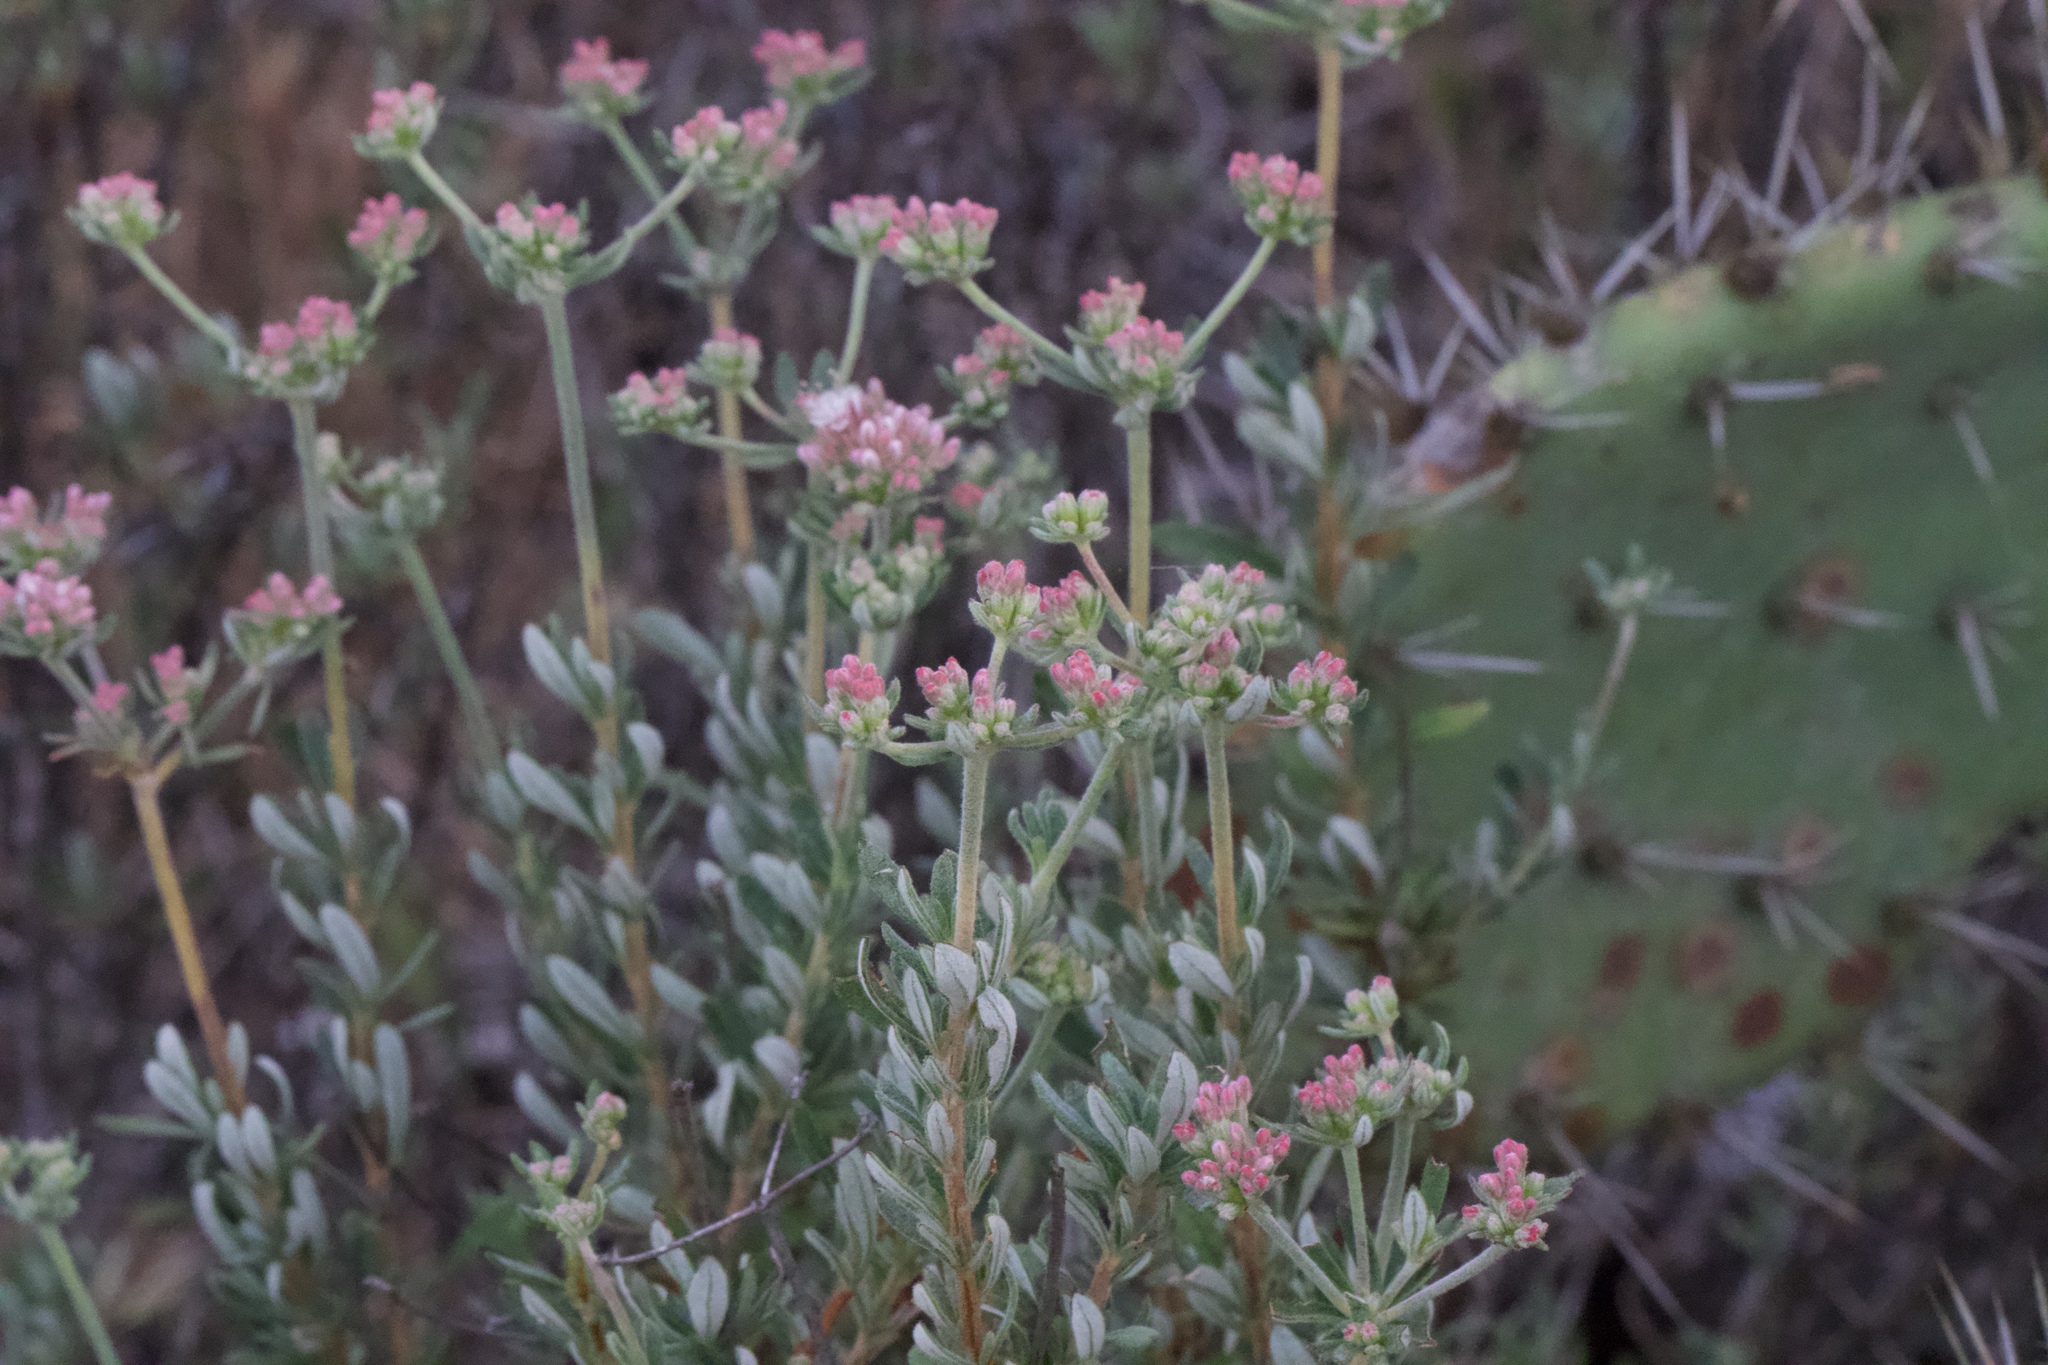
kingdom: Plantae
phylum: Tracheophyta
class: Magnoliopsida
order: Caryophyllales
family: Polygonaceae
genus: Eriogonum
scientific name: Eriogonum fasciculatum
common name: California wild buckwheat
